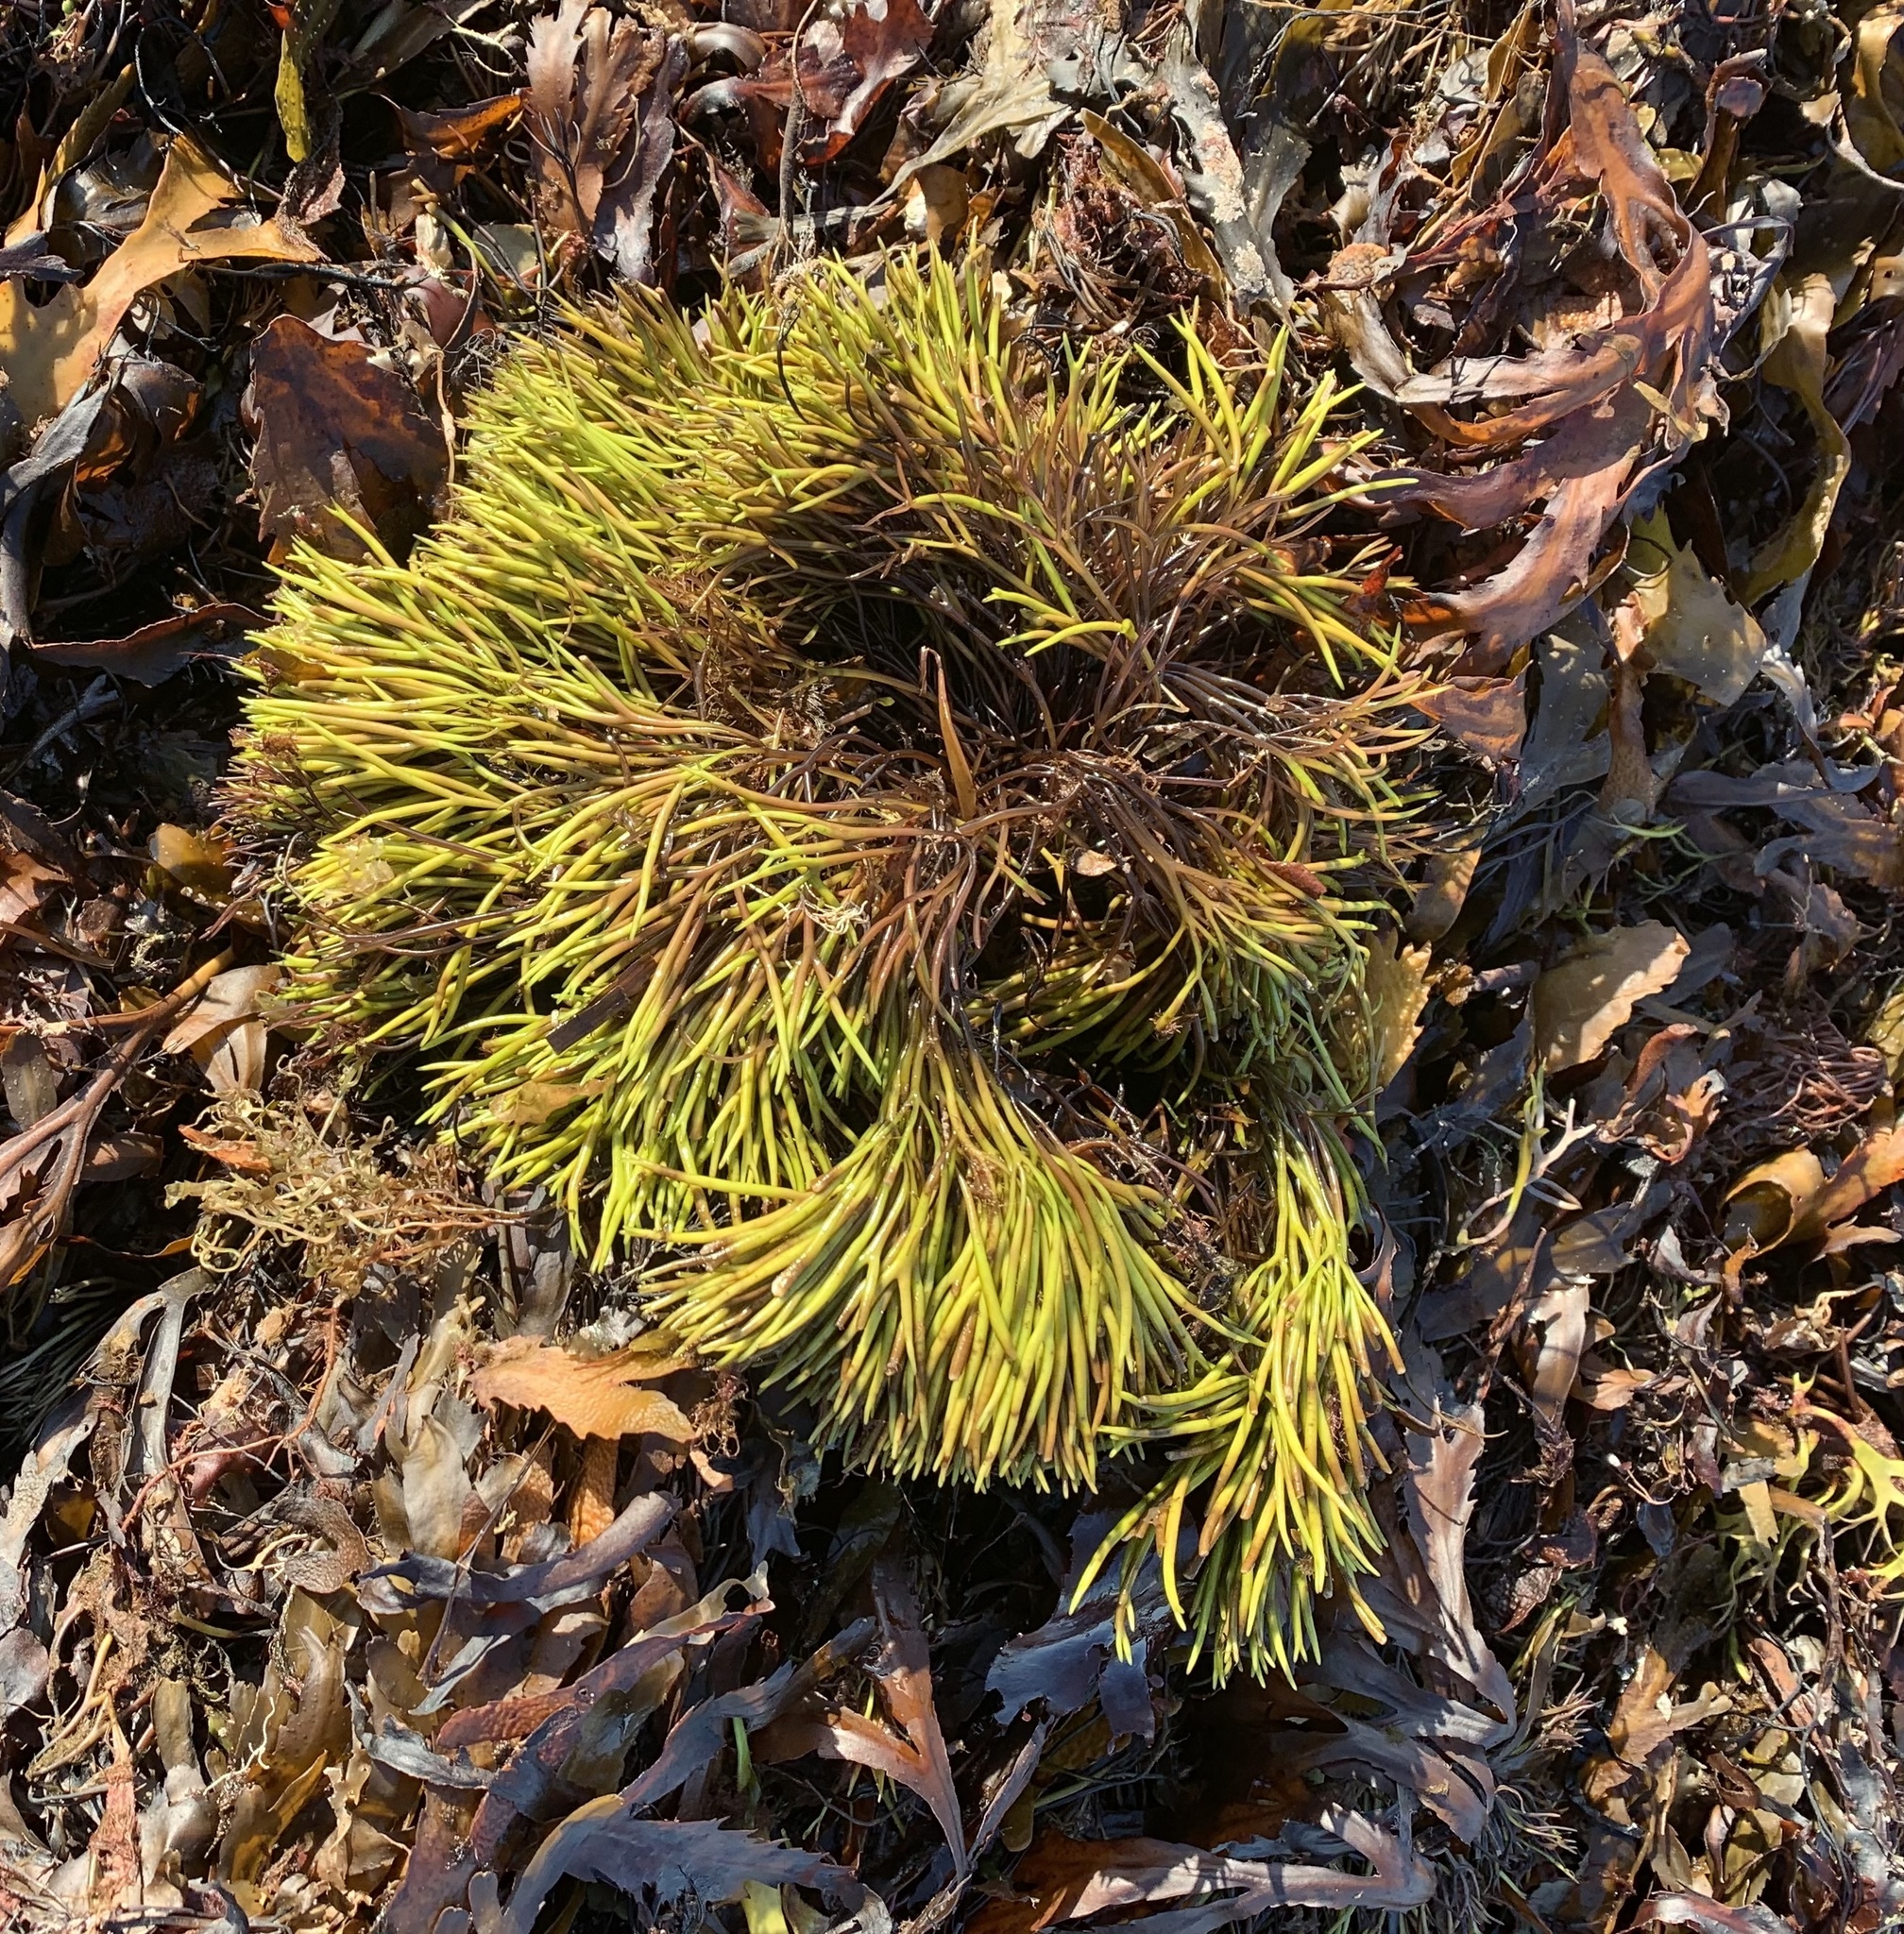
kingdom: Plantae
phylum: Rhodophyta
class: Florideophyceae
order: Gigartinales
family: Furcellariaceae
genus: Furcellaria
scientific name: Furcellaria lumbricalis
